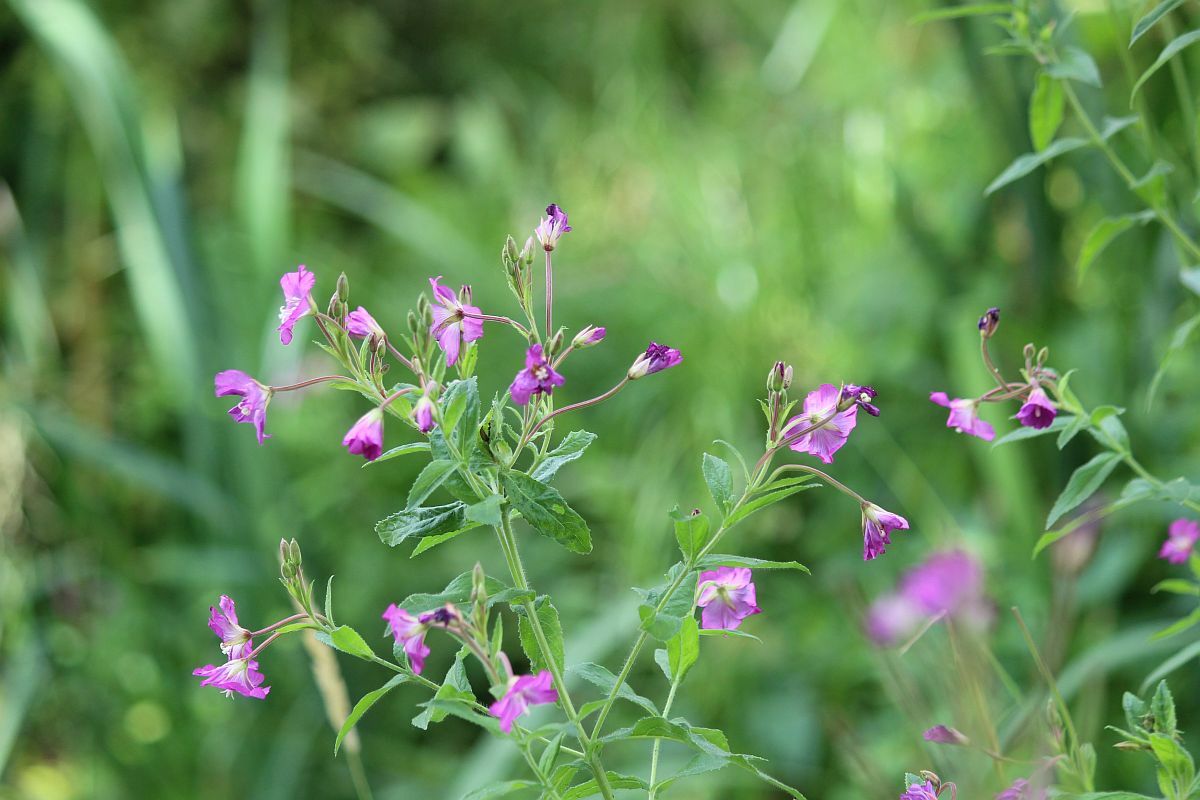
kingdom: Plantae
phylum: Tracheophyta
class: Magnoliopsida
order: Myrtales
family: Onagraceae
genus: Epilobium
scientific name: Epilobium hirsutum
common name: Great willowherb
